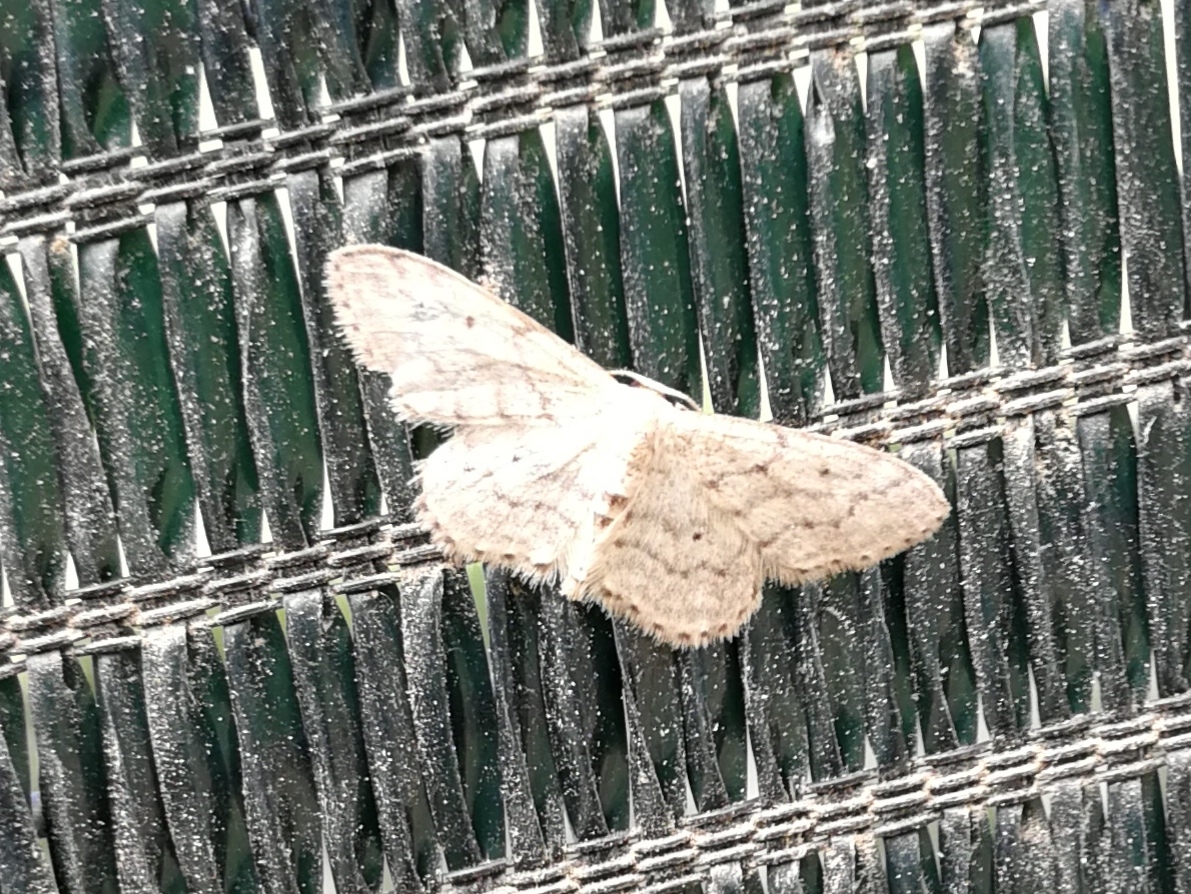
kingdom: Animalia
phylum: Arthropoda
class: Insecta
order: Lepidoptera
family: Geometridae
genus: Idaea
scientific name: Idaea seriata
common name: Small dusty wave
